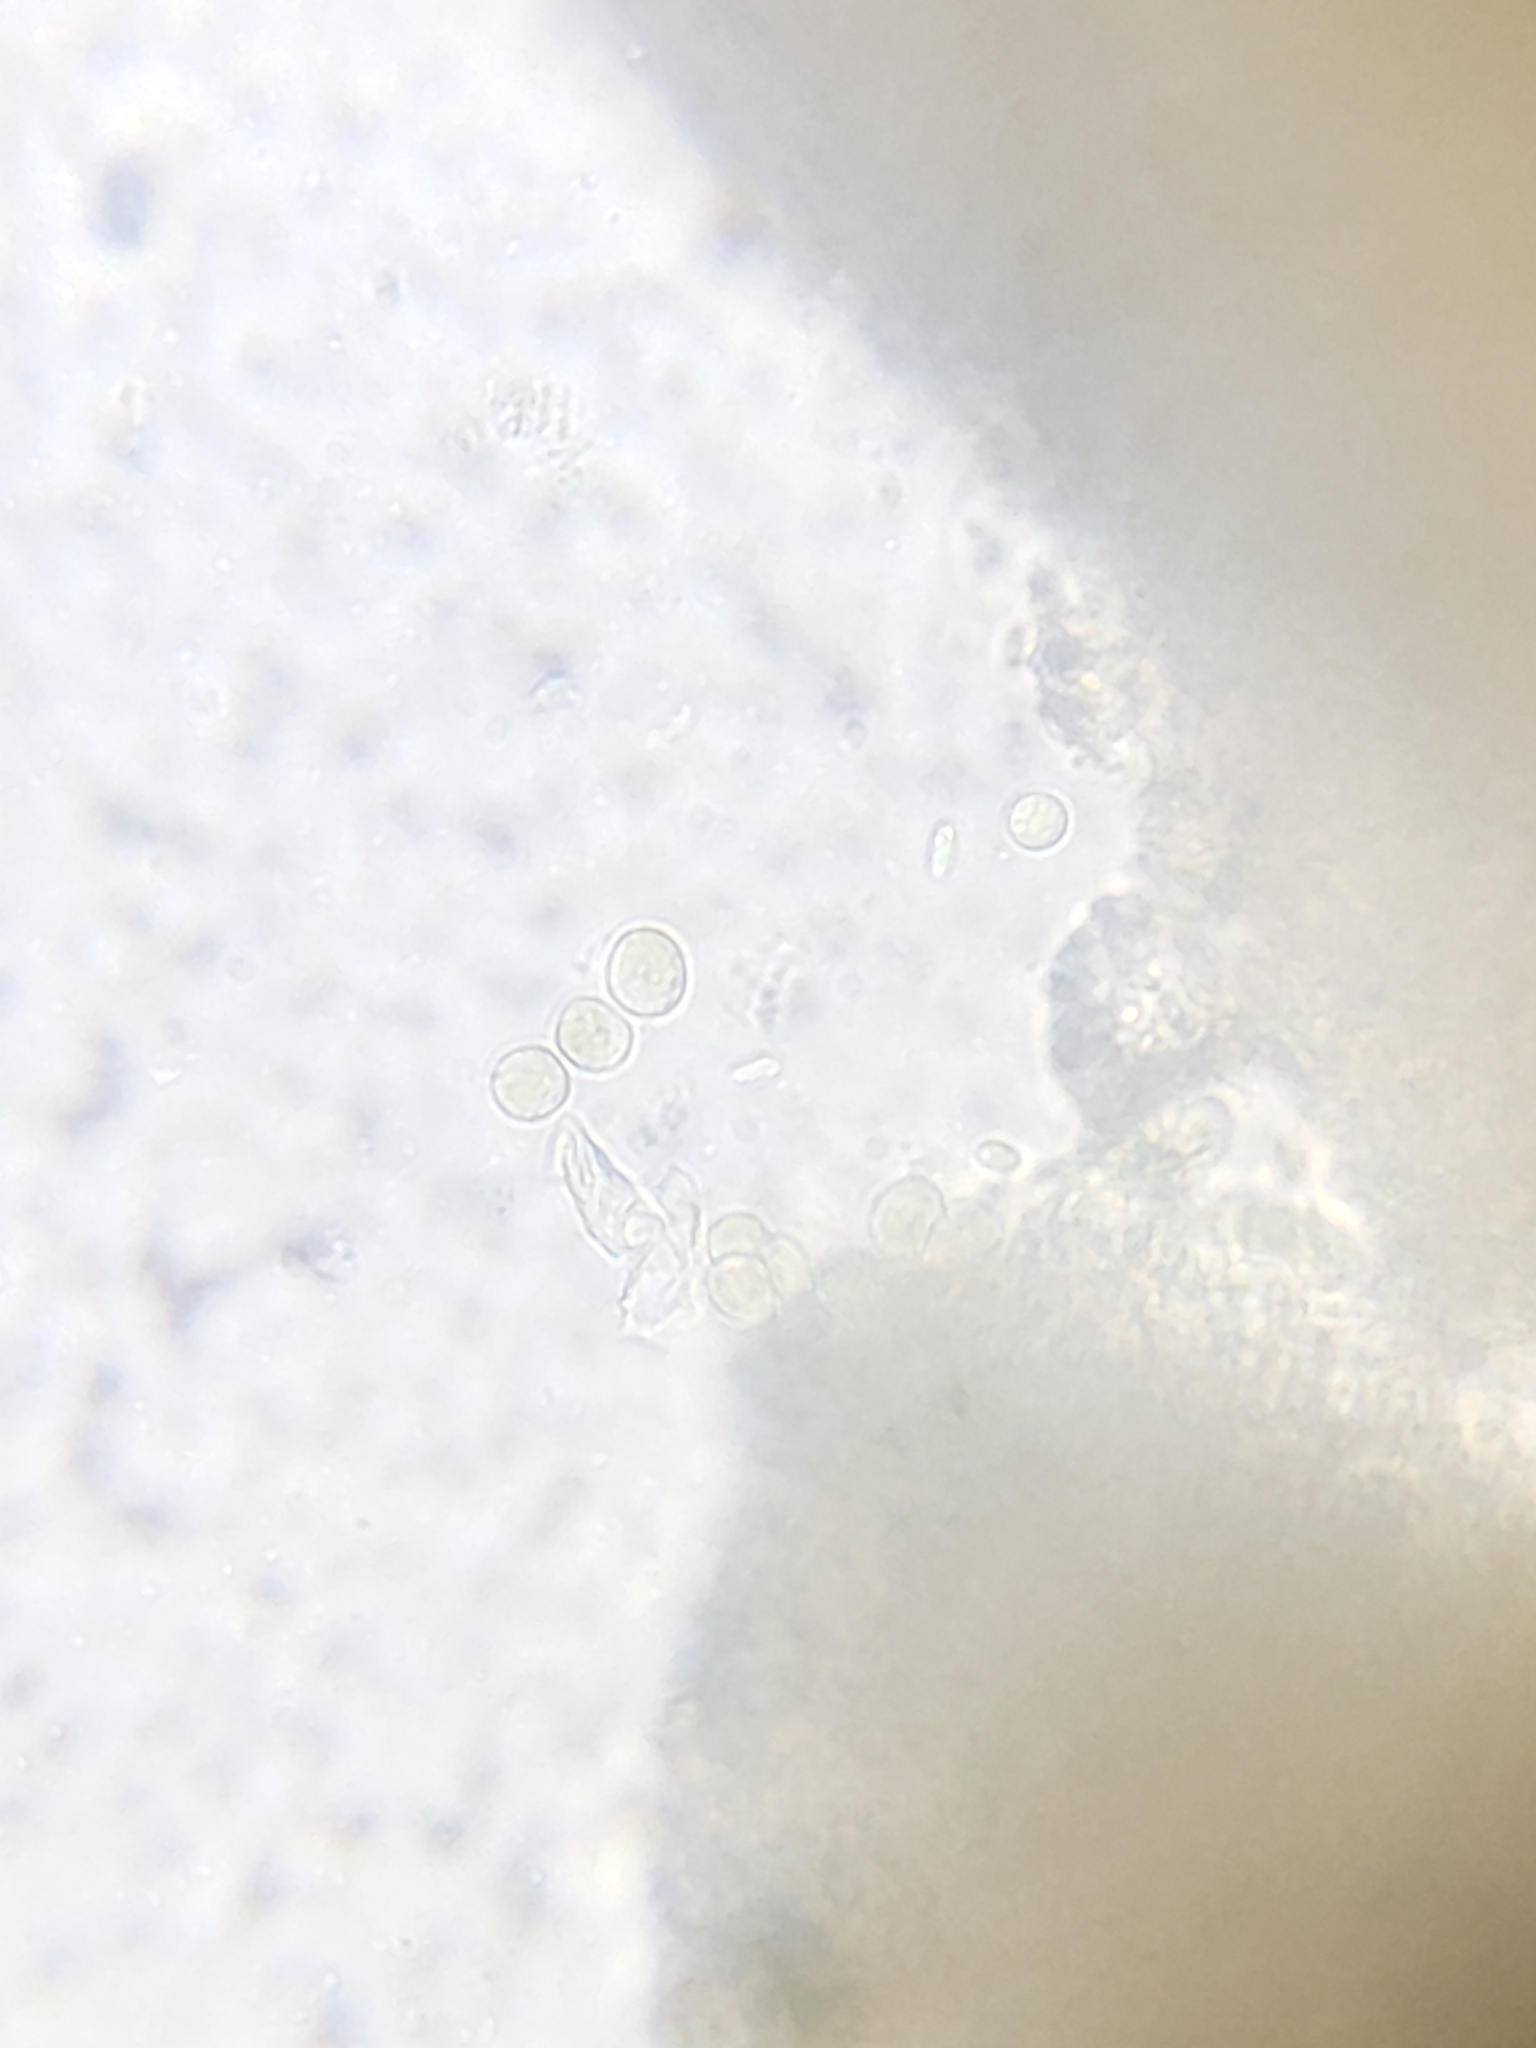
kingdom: Fungi
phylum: Basidiomycota
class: Agaricomycetes
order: Cantharellales
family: Hydnaceae
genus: Multiclavula
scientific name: Multiclavula mucida
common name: White green-algae coral
